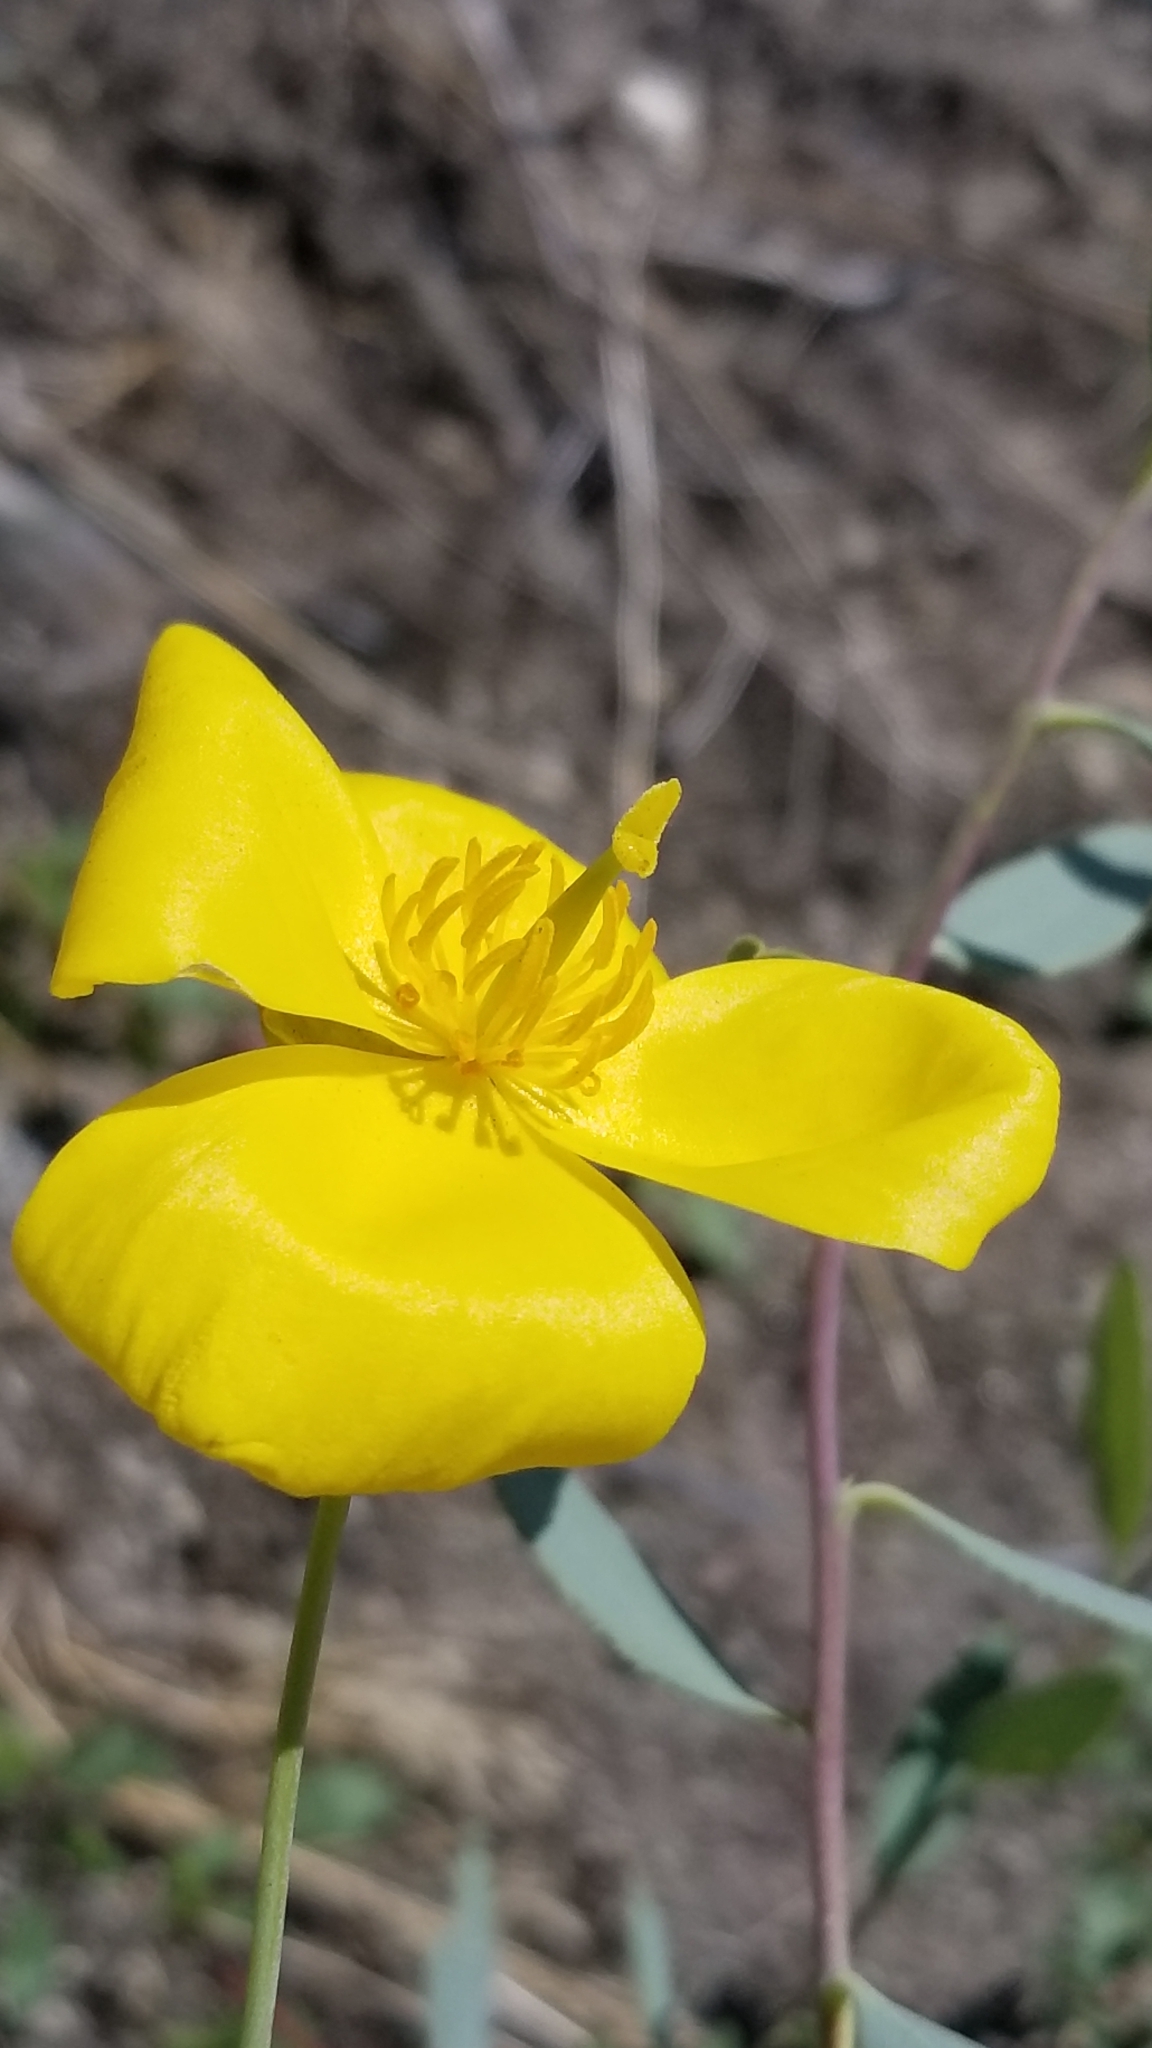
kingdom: Plantae
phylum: Tracheophyta
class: Magnoliopsida
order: Ranunculales
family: Papaveraceae
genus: Dendromecon
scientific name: Dendromecon rigida
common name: Tree poppy
